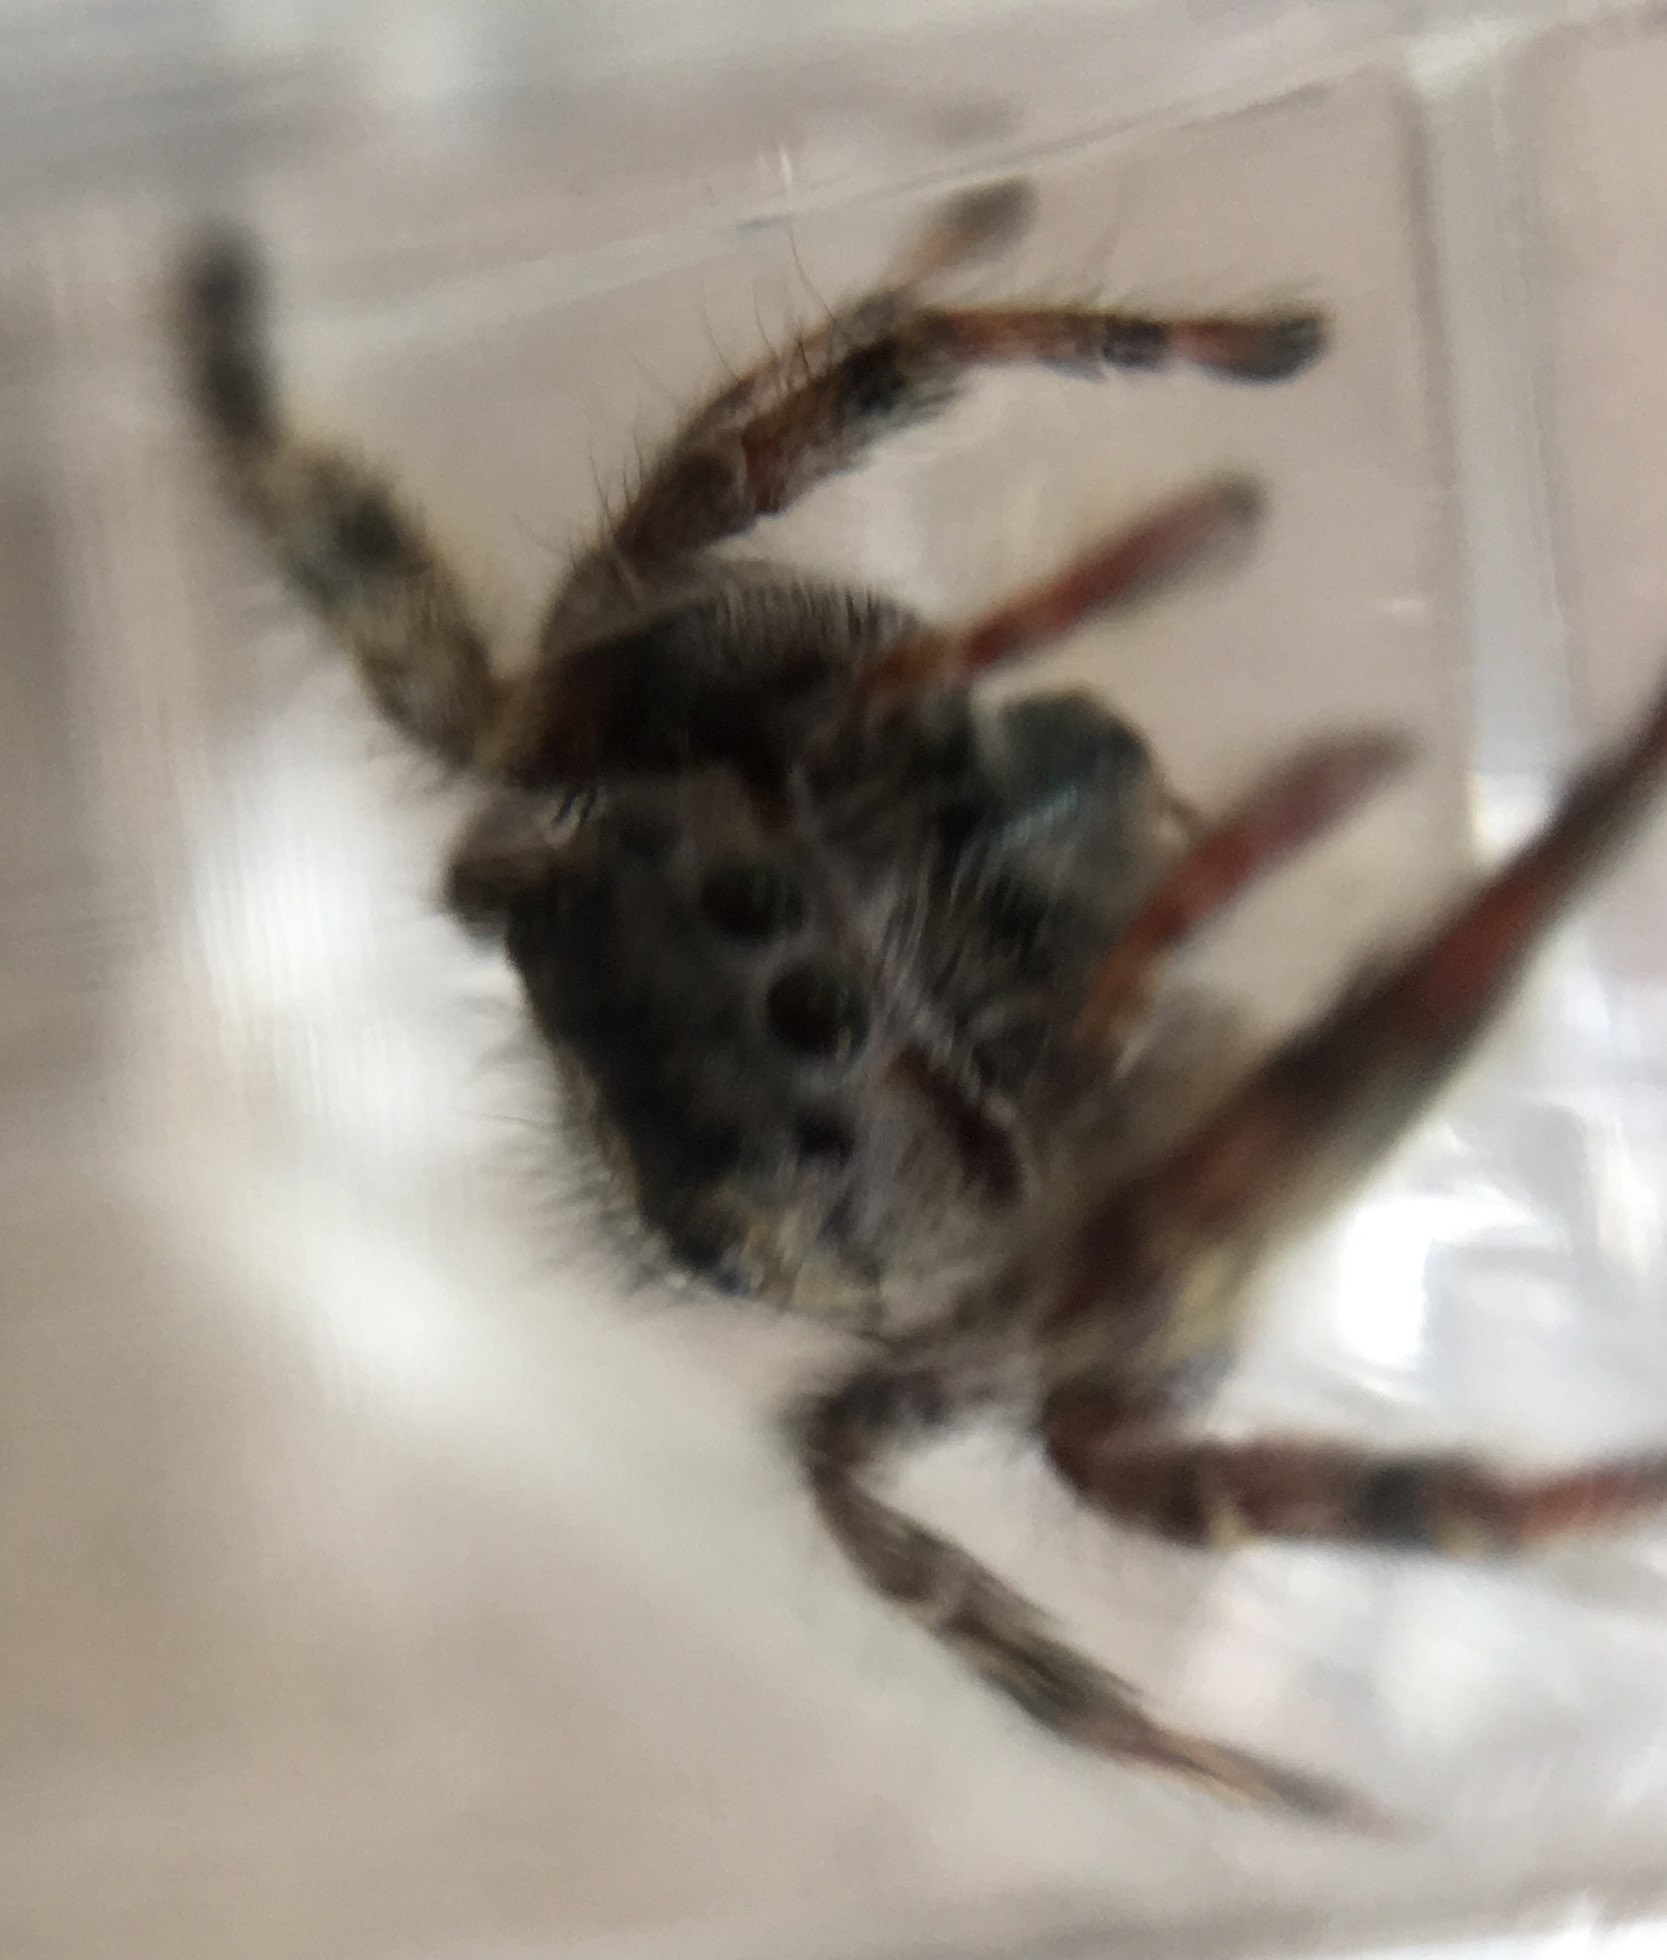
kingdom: Animalia
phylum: Arthropoda
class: Arachnida
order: Araneae
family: Salticidae
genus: Phidippus
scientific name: Phidippus putnami
